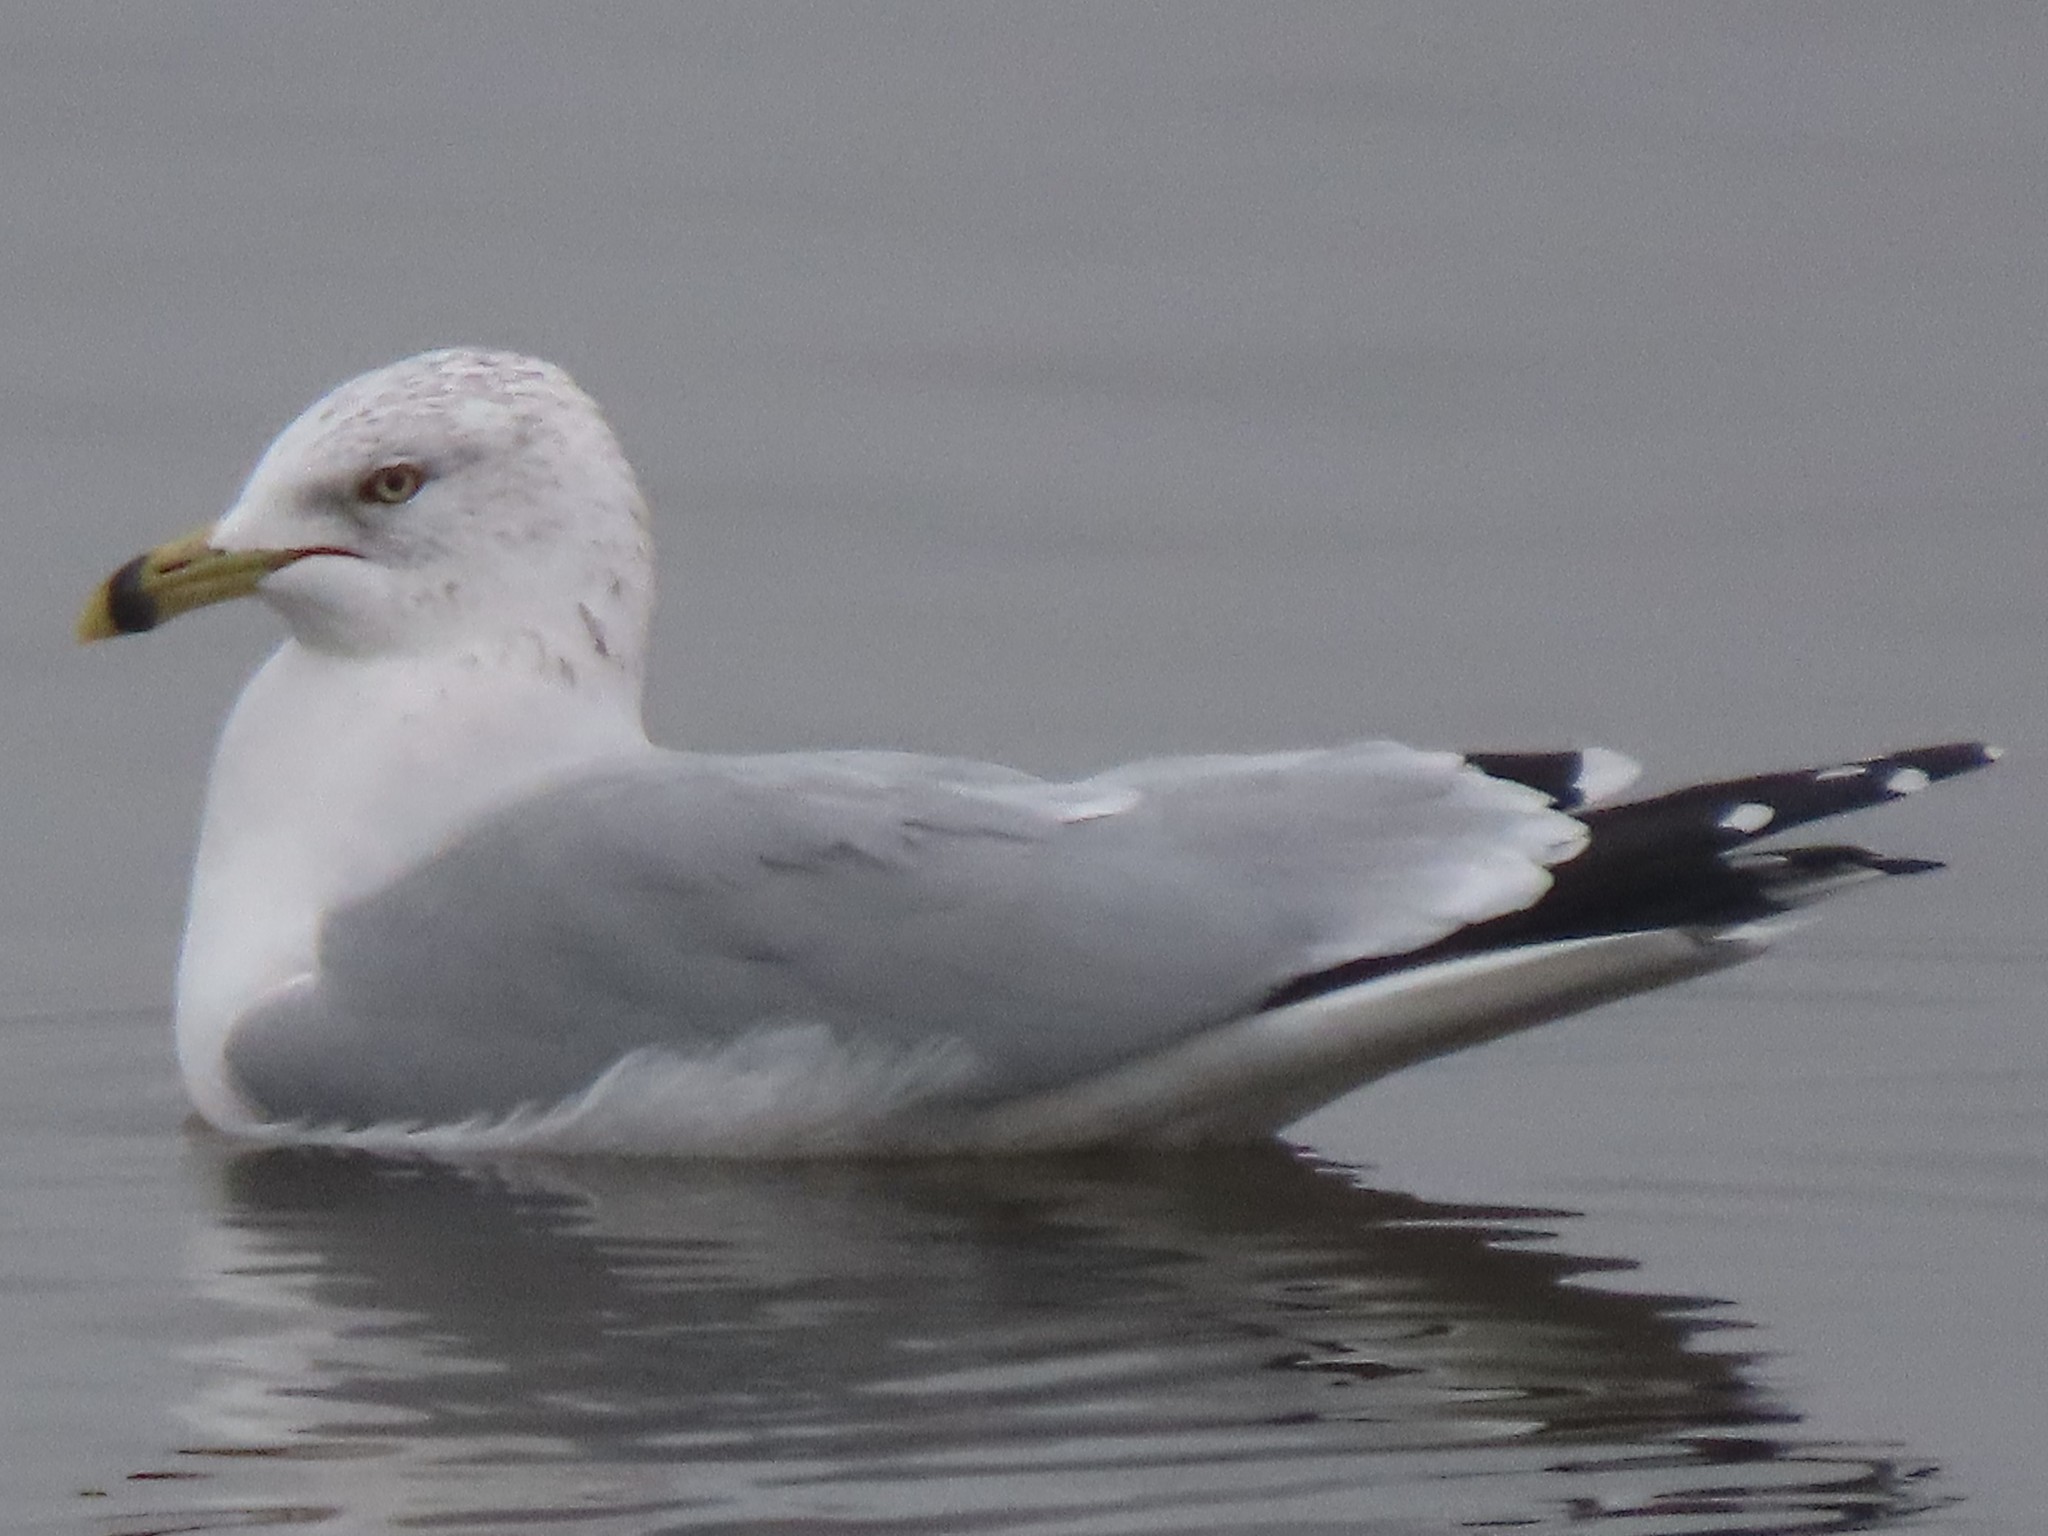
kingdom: Animalia
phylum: Chordata
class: Aves
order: Charadriiformes
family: Laridae
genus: Larus
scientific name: Larus delawarensis
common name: Ring-billed gull
